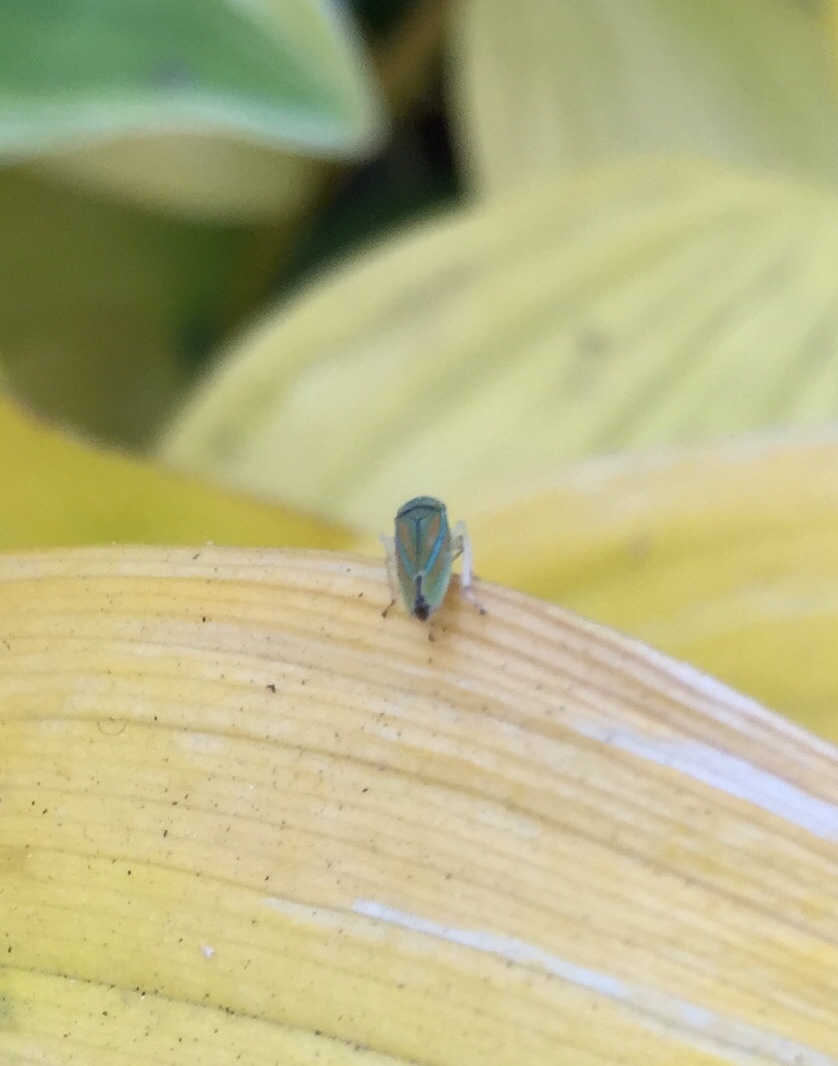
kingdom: Animalia
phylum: Arthropoda
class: Insecta
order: Hemiptera
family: Cicadellidae
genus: Graphocephala
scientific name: Graphocephala versuta
